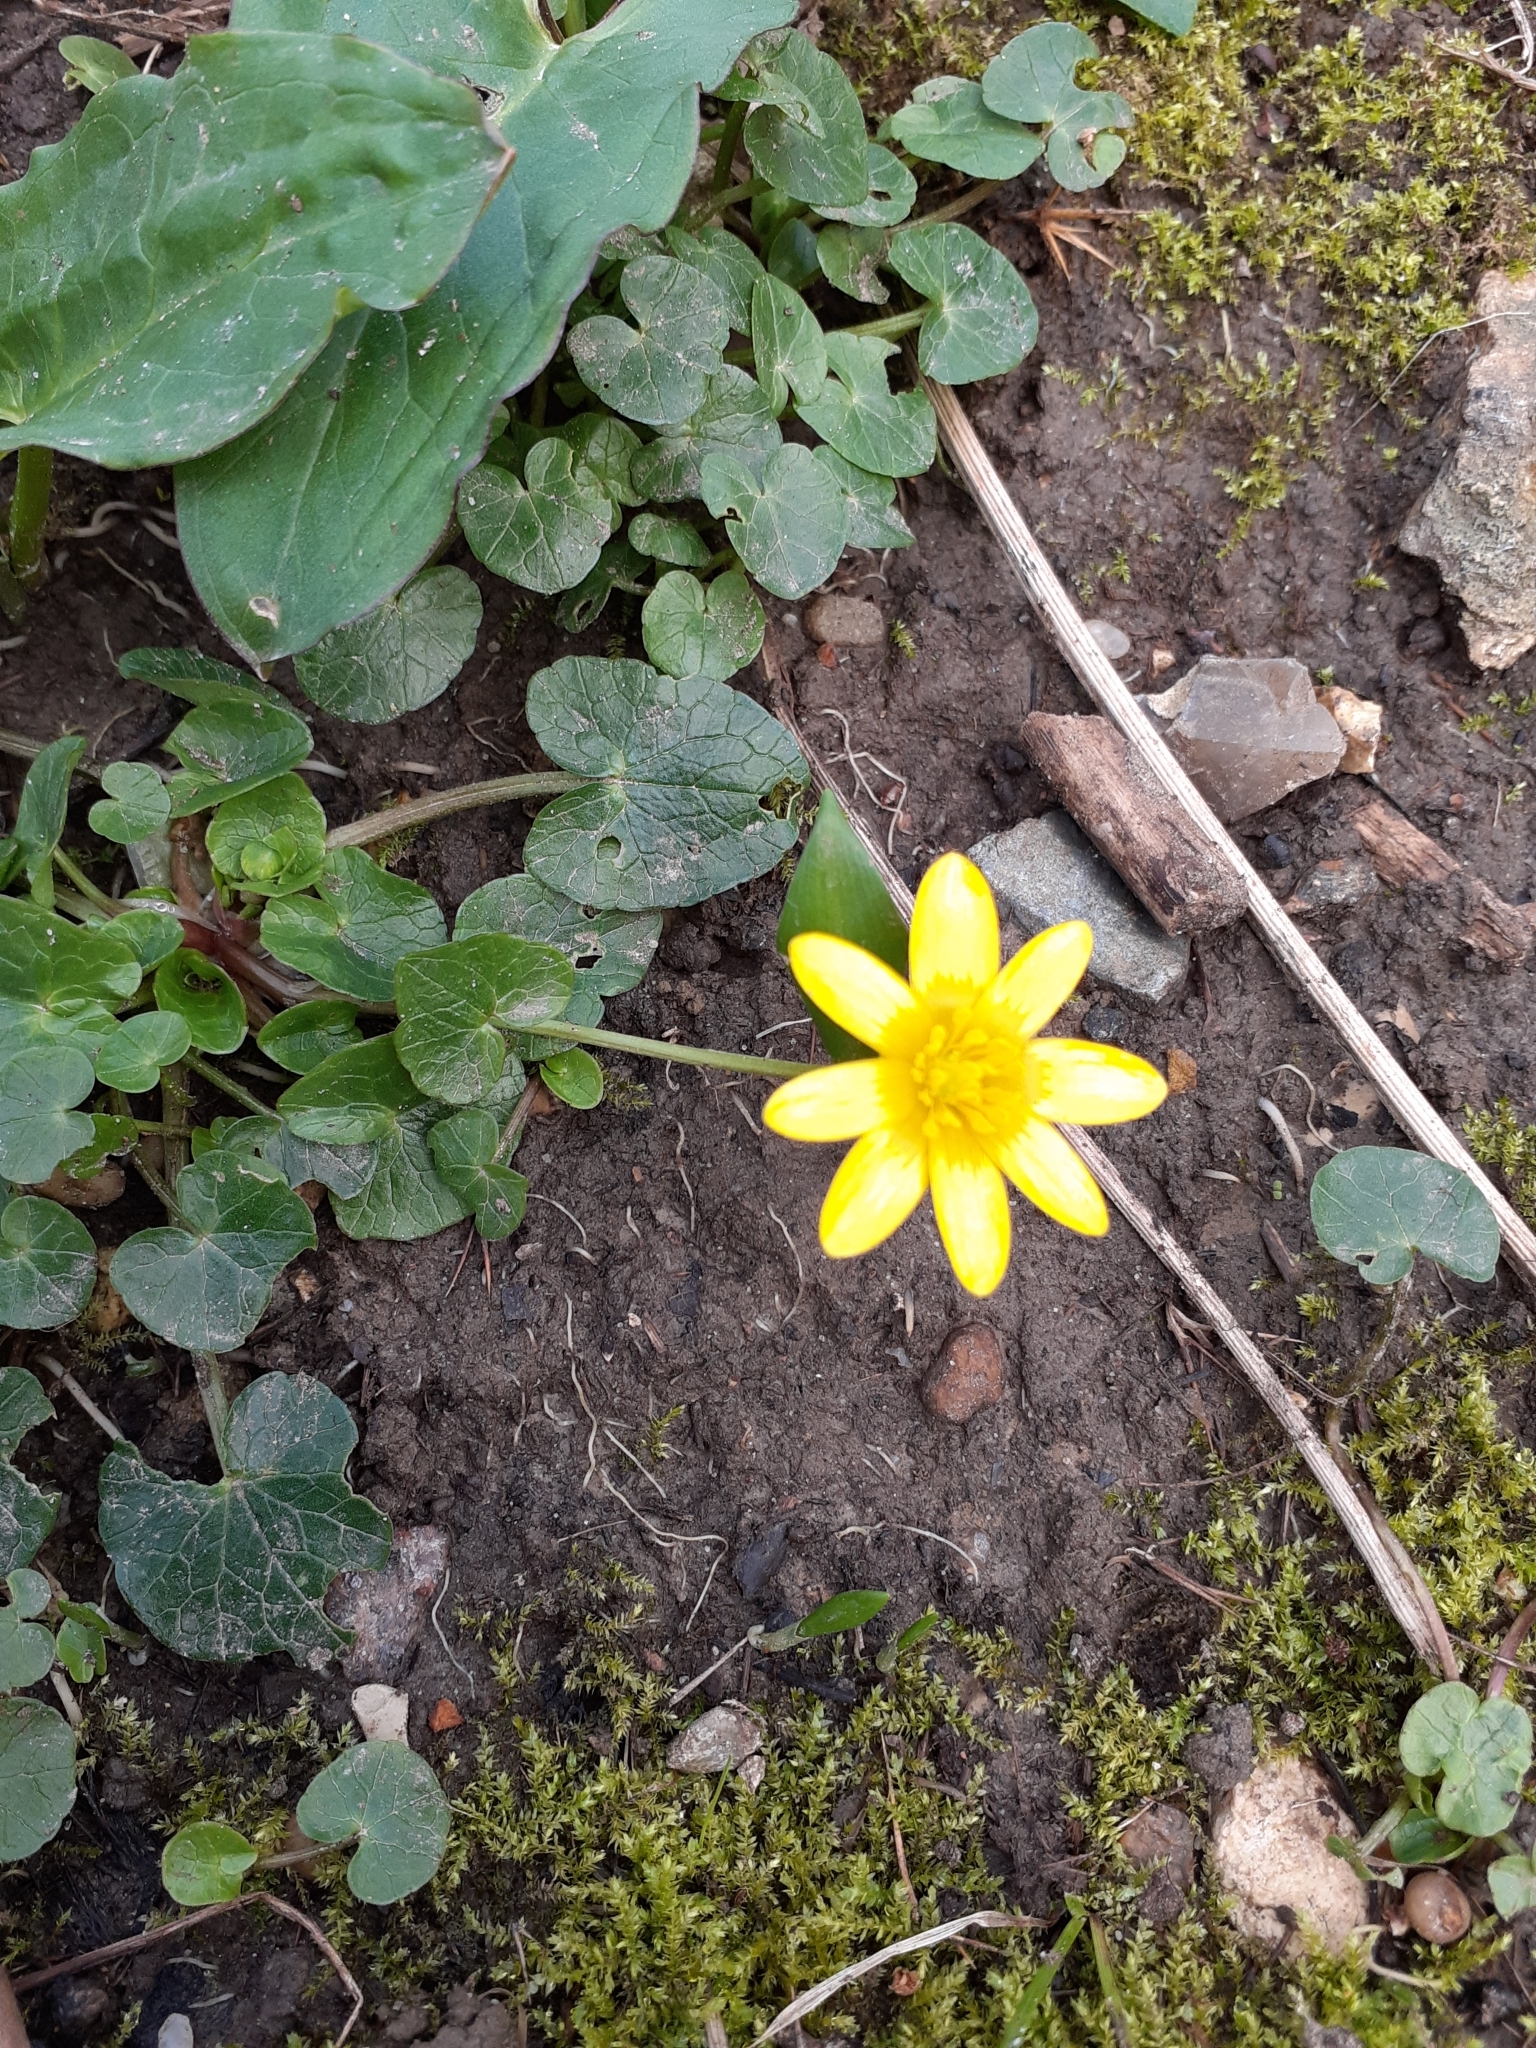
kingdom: Plantae
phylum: Tracheophyta
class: Magnoliopsida
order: Ranunculales
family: Ranunculaceae
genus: Ficaria
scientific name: Ficaria verna
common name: Lesser celandine
